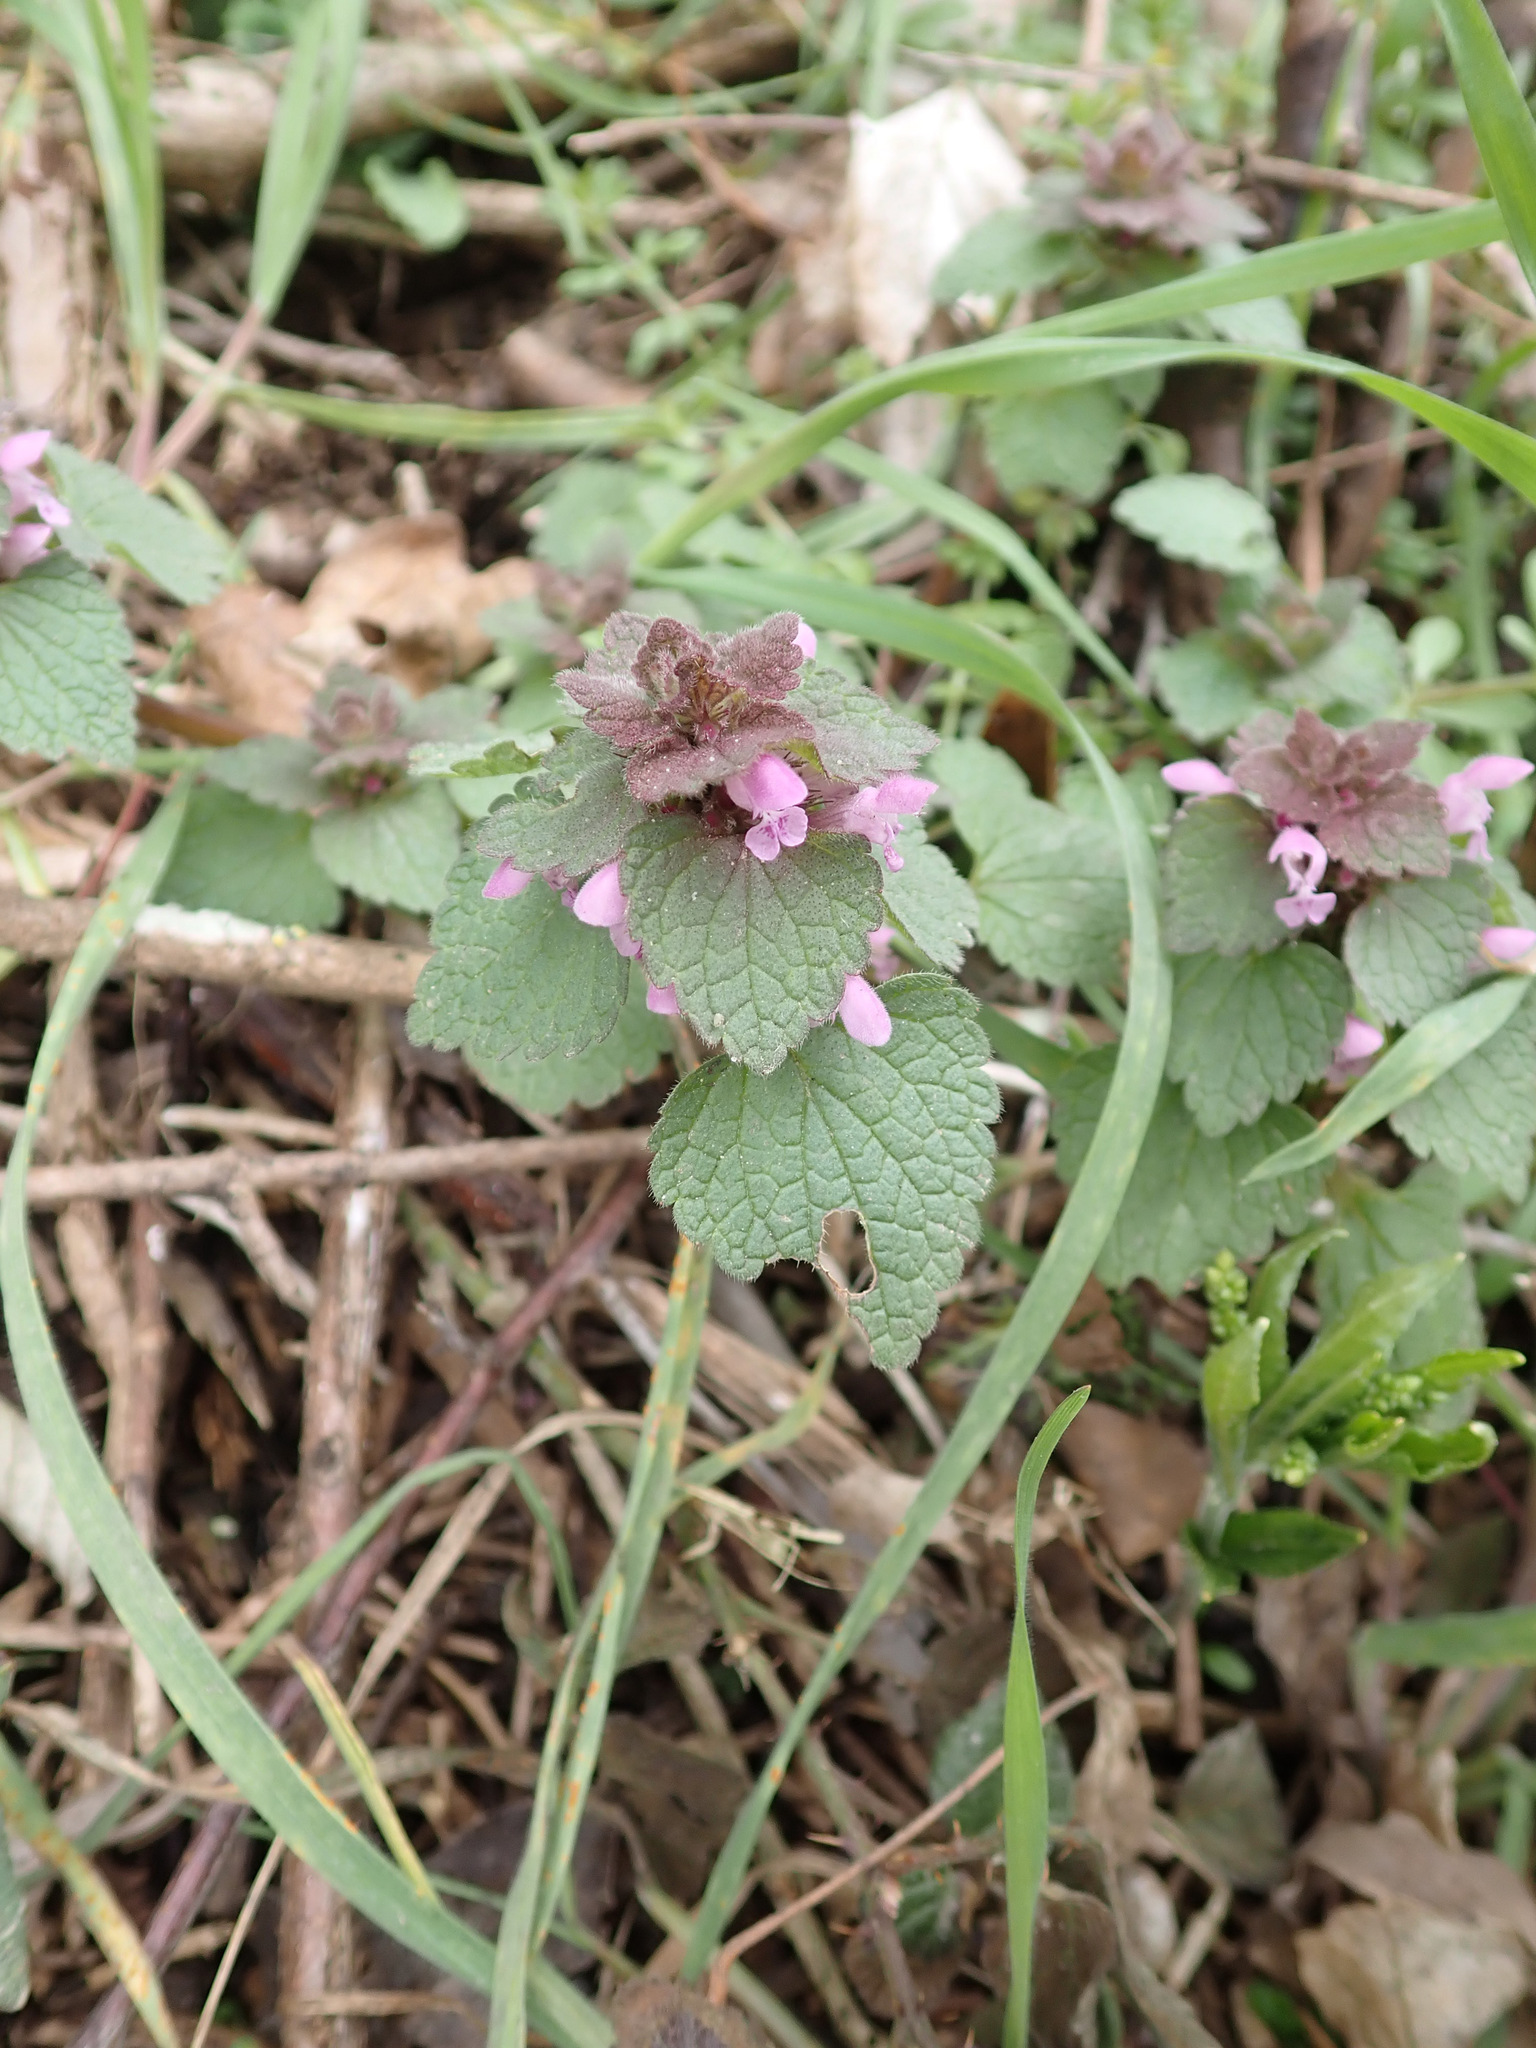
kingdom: Plantae
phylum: Tracheophyta
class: Magnoliopsida
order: Lamiales
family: Lamiaceae
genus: Lamium
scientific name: Lamium purpureum
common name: Red dead-nettle
